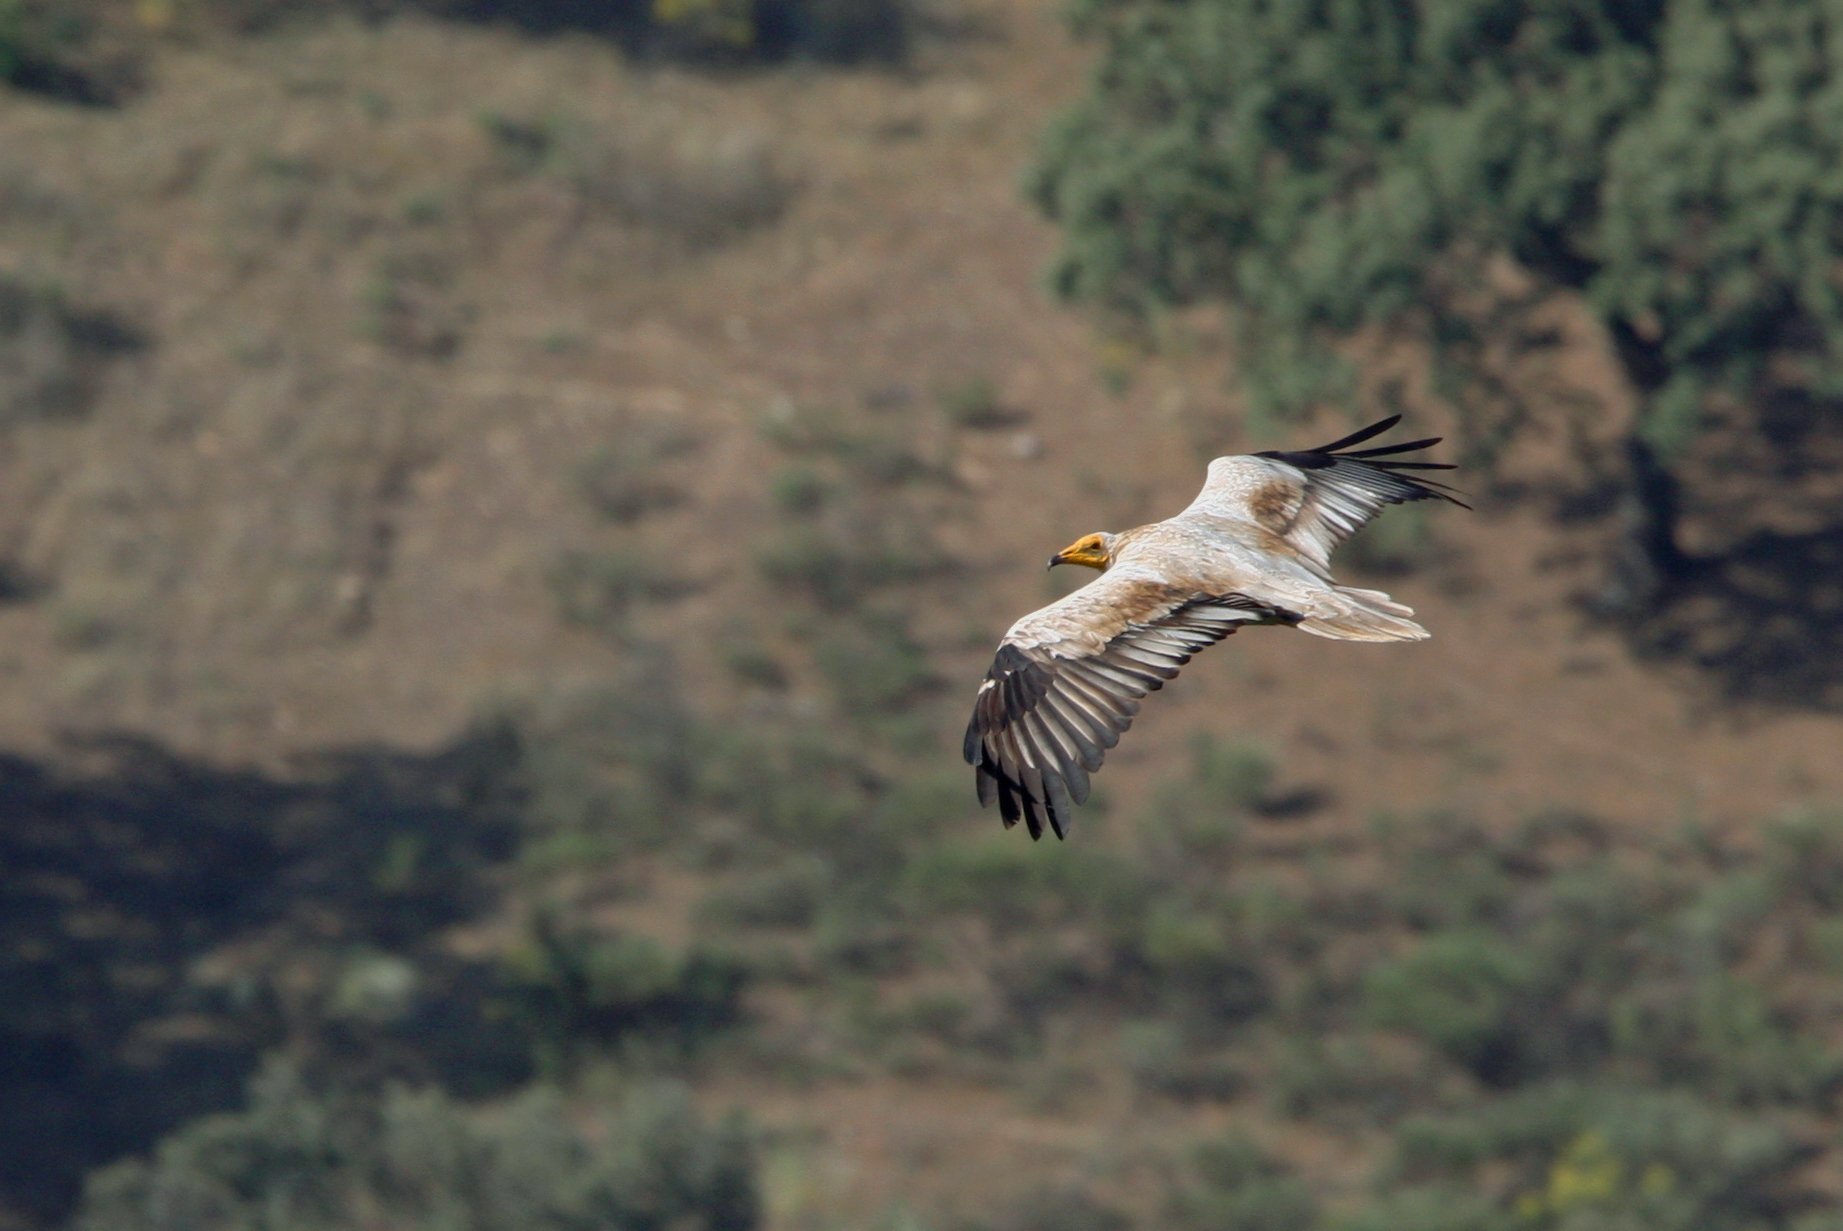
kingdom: Animalia
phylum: Chordata
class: Aves
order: Accipitriformes
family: Accipitridae
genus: Neophron
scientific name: Neophron percnopterus
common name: Egyptian vulture
